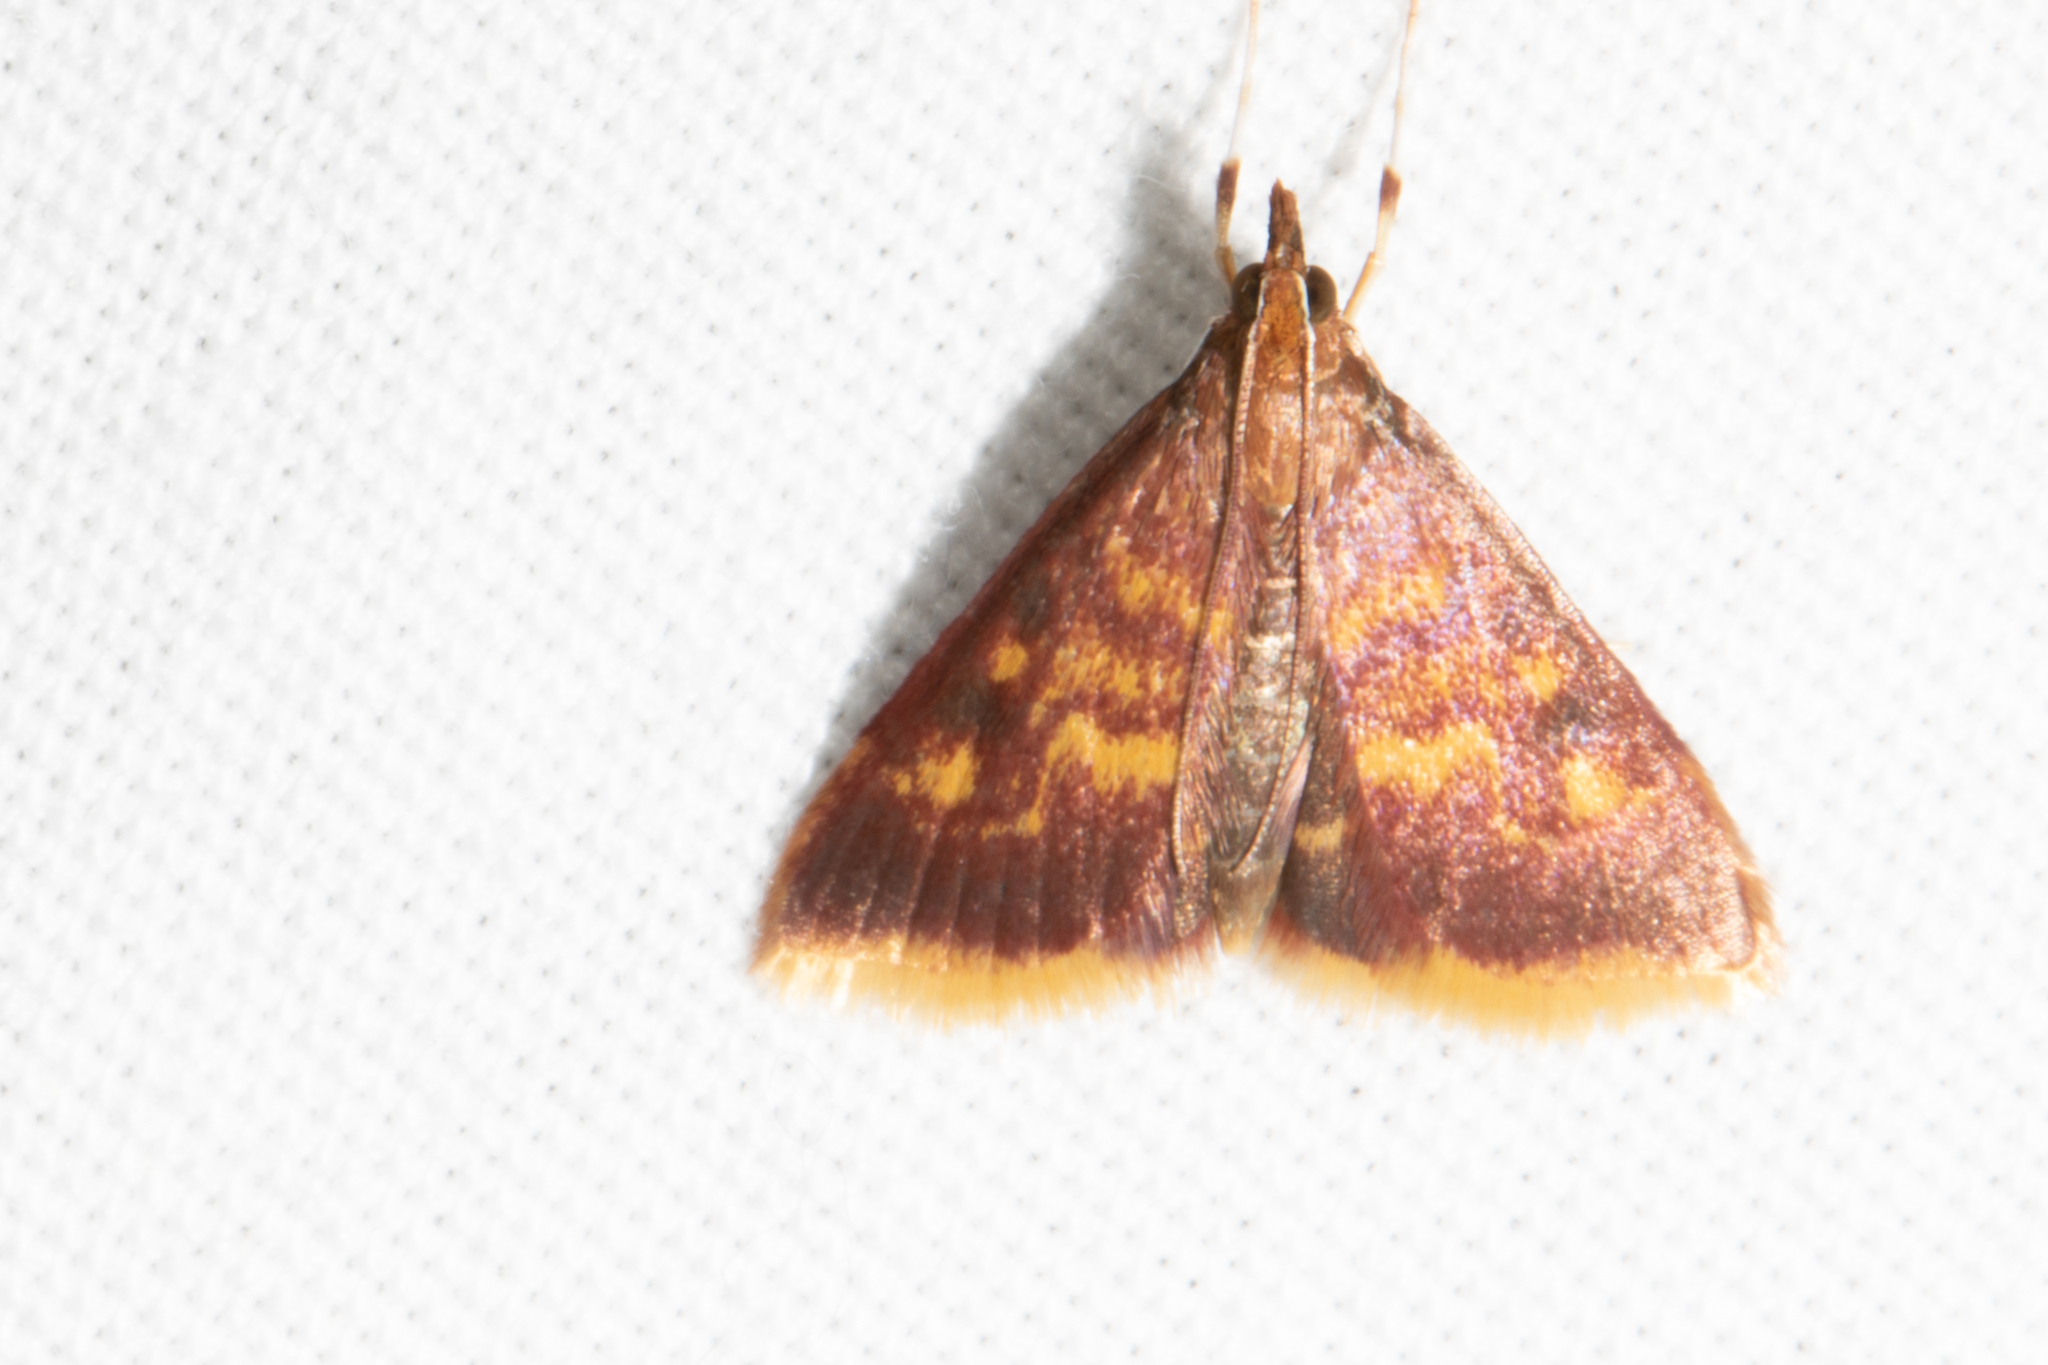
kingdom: Animalia
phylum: Arthropoda
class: Insecta
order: Lepidoptera
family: Crambidae
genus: Pyrausta
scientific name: Pyrausta acrionalis
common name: Mint-loving pyrausta moth
